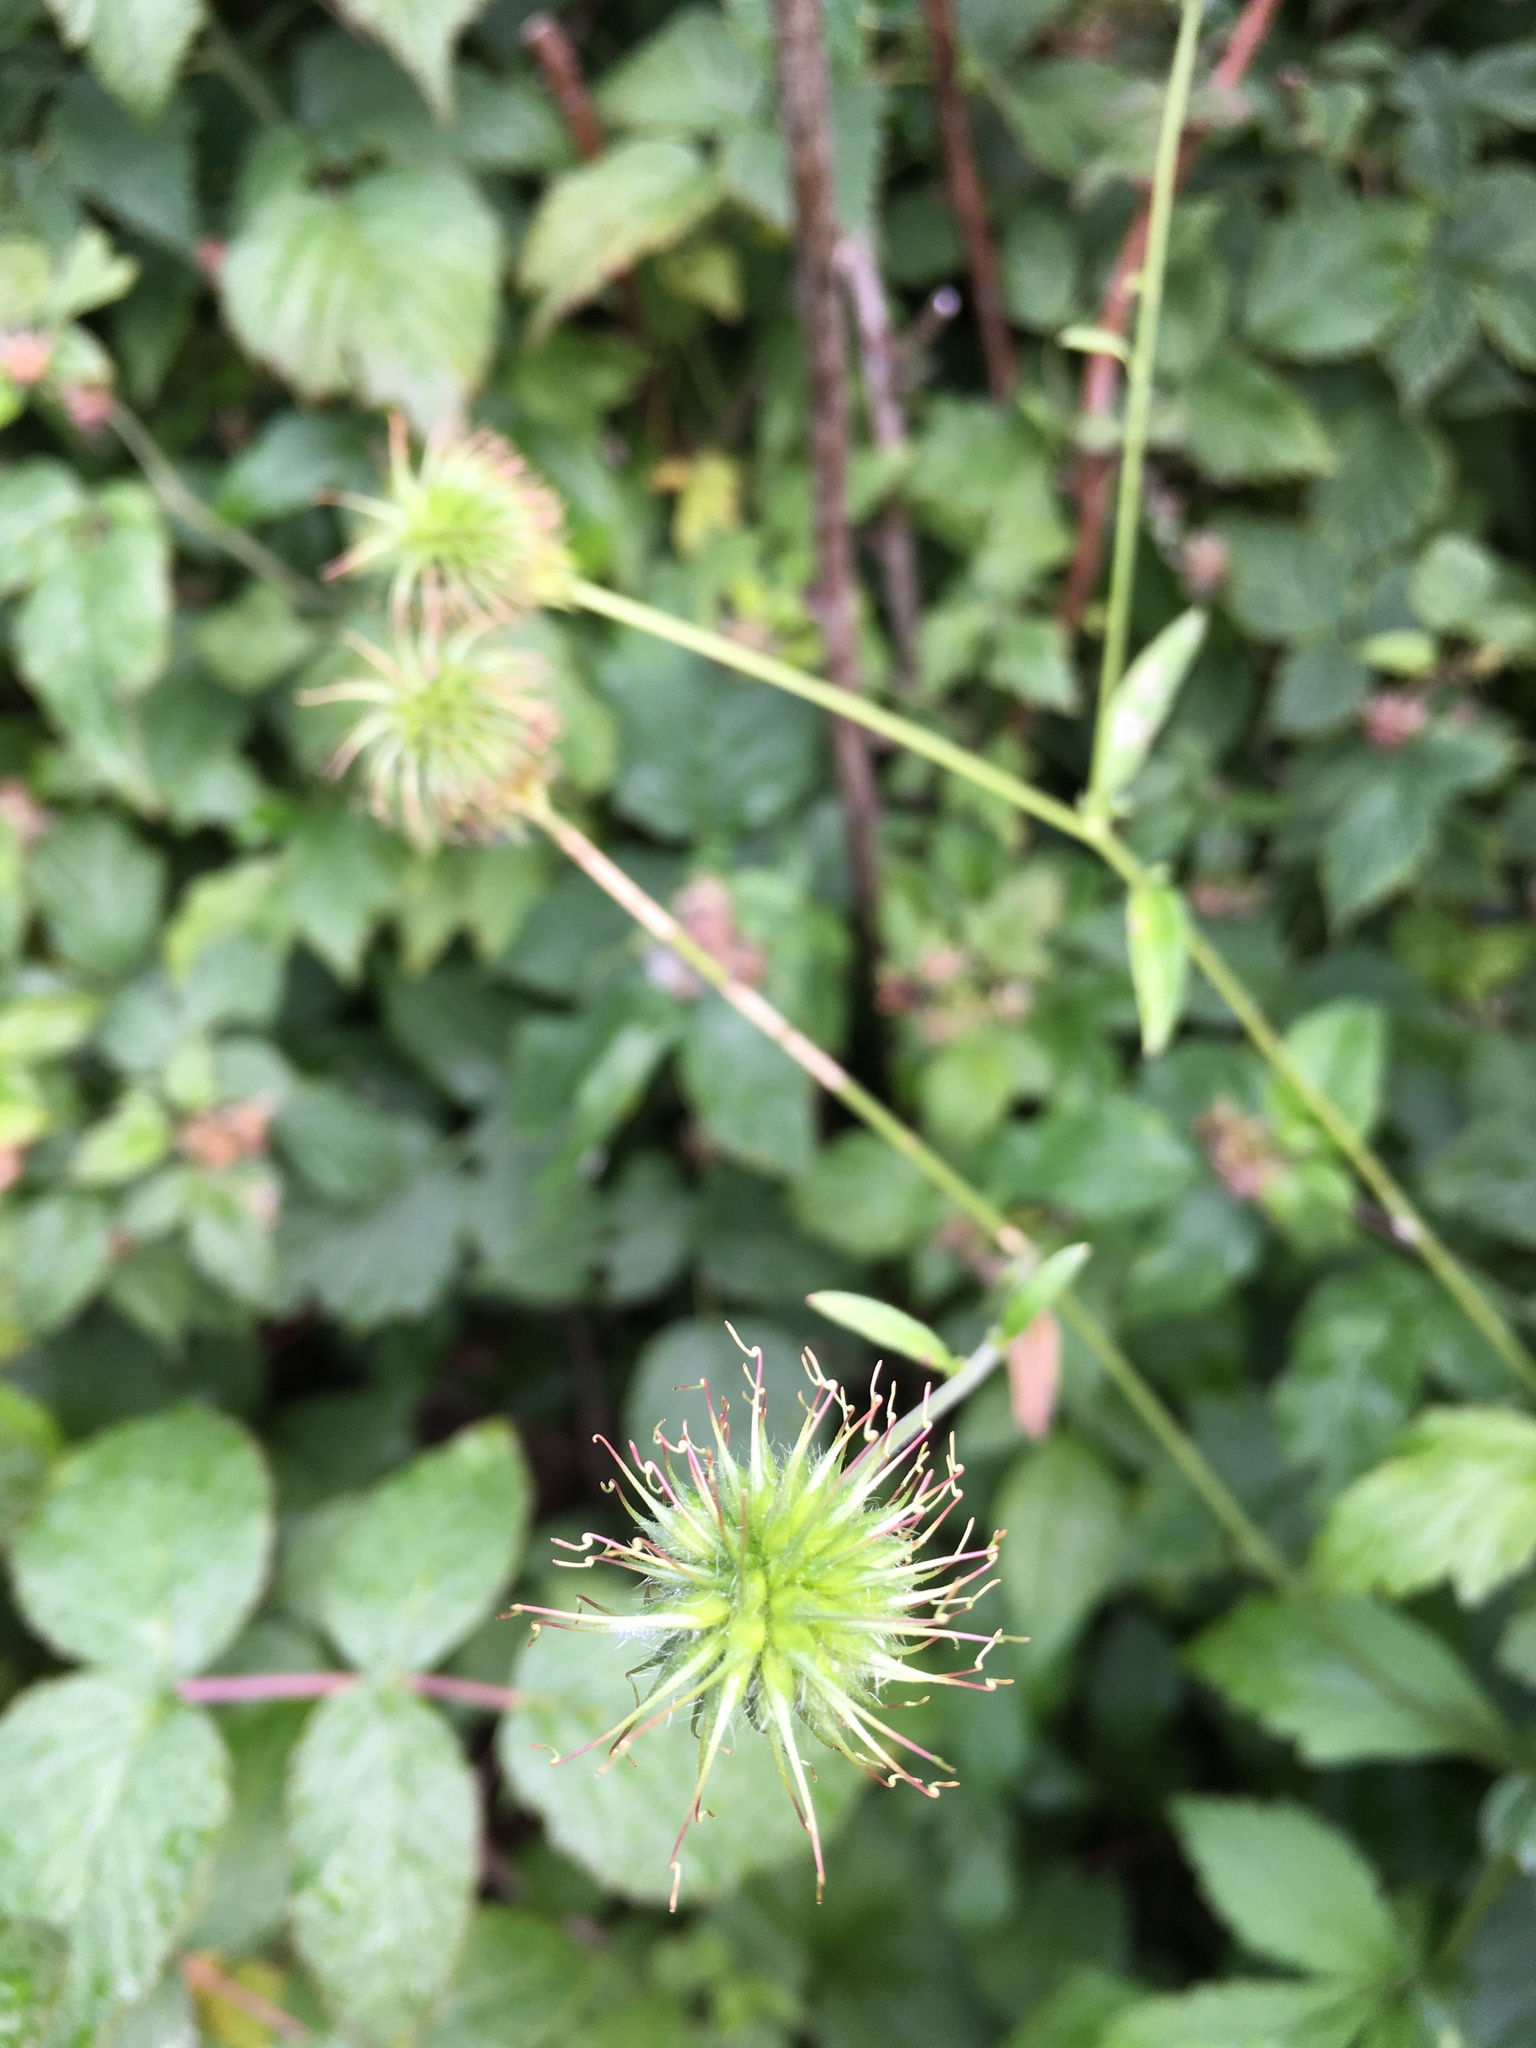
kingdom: Plantae
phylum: Tracheophyta
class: Magnoliopsida
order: Rosales
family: Rosaceae
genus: Geum
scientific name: Geum urbanum
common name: Wood avens
